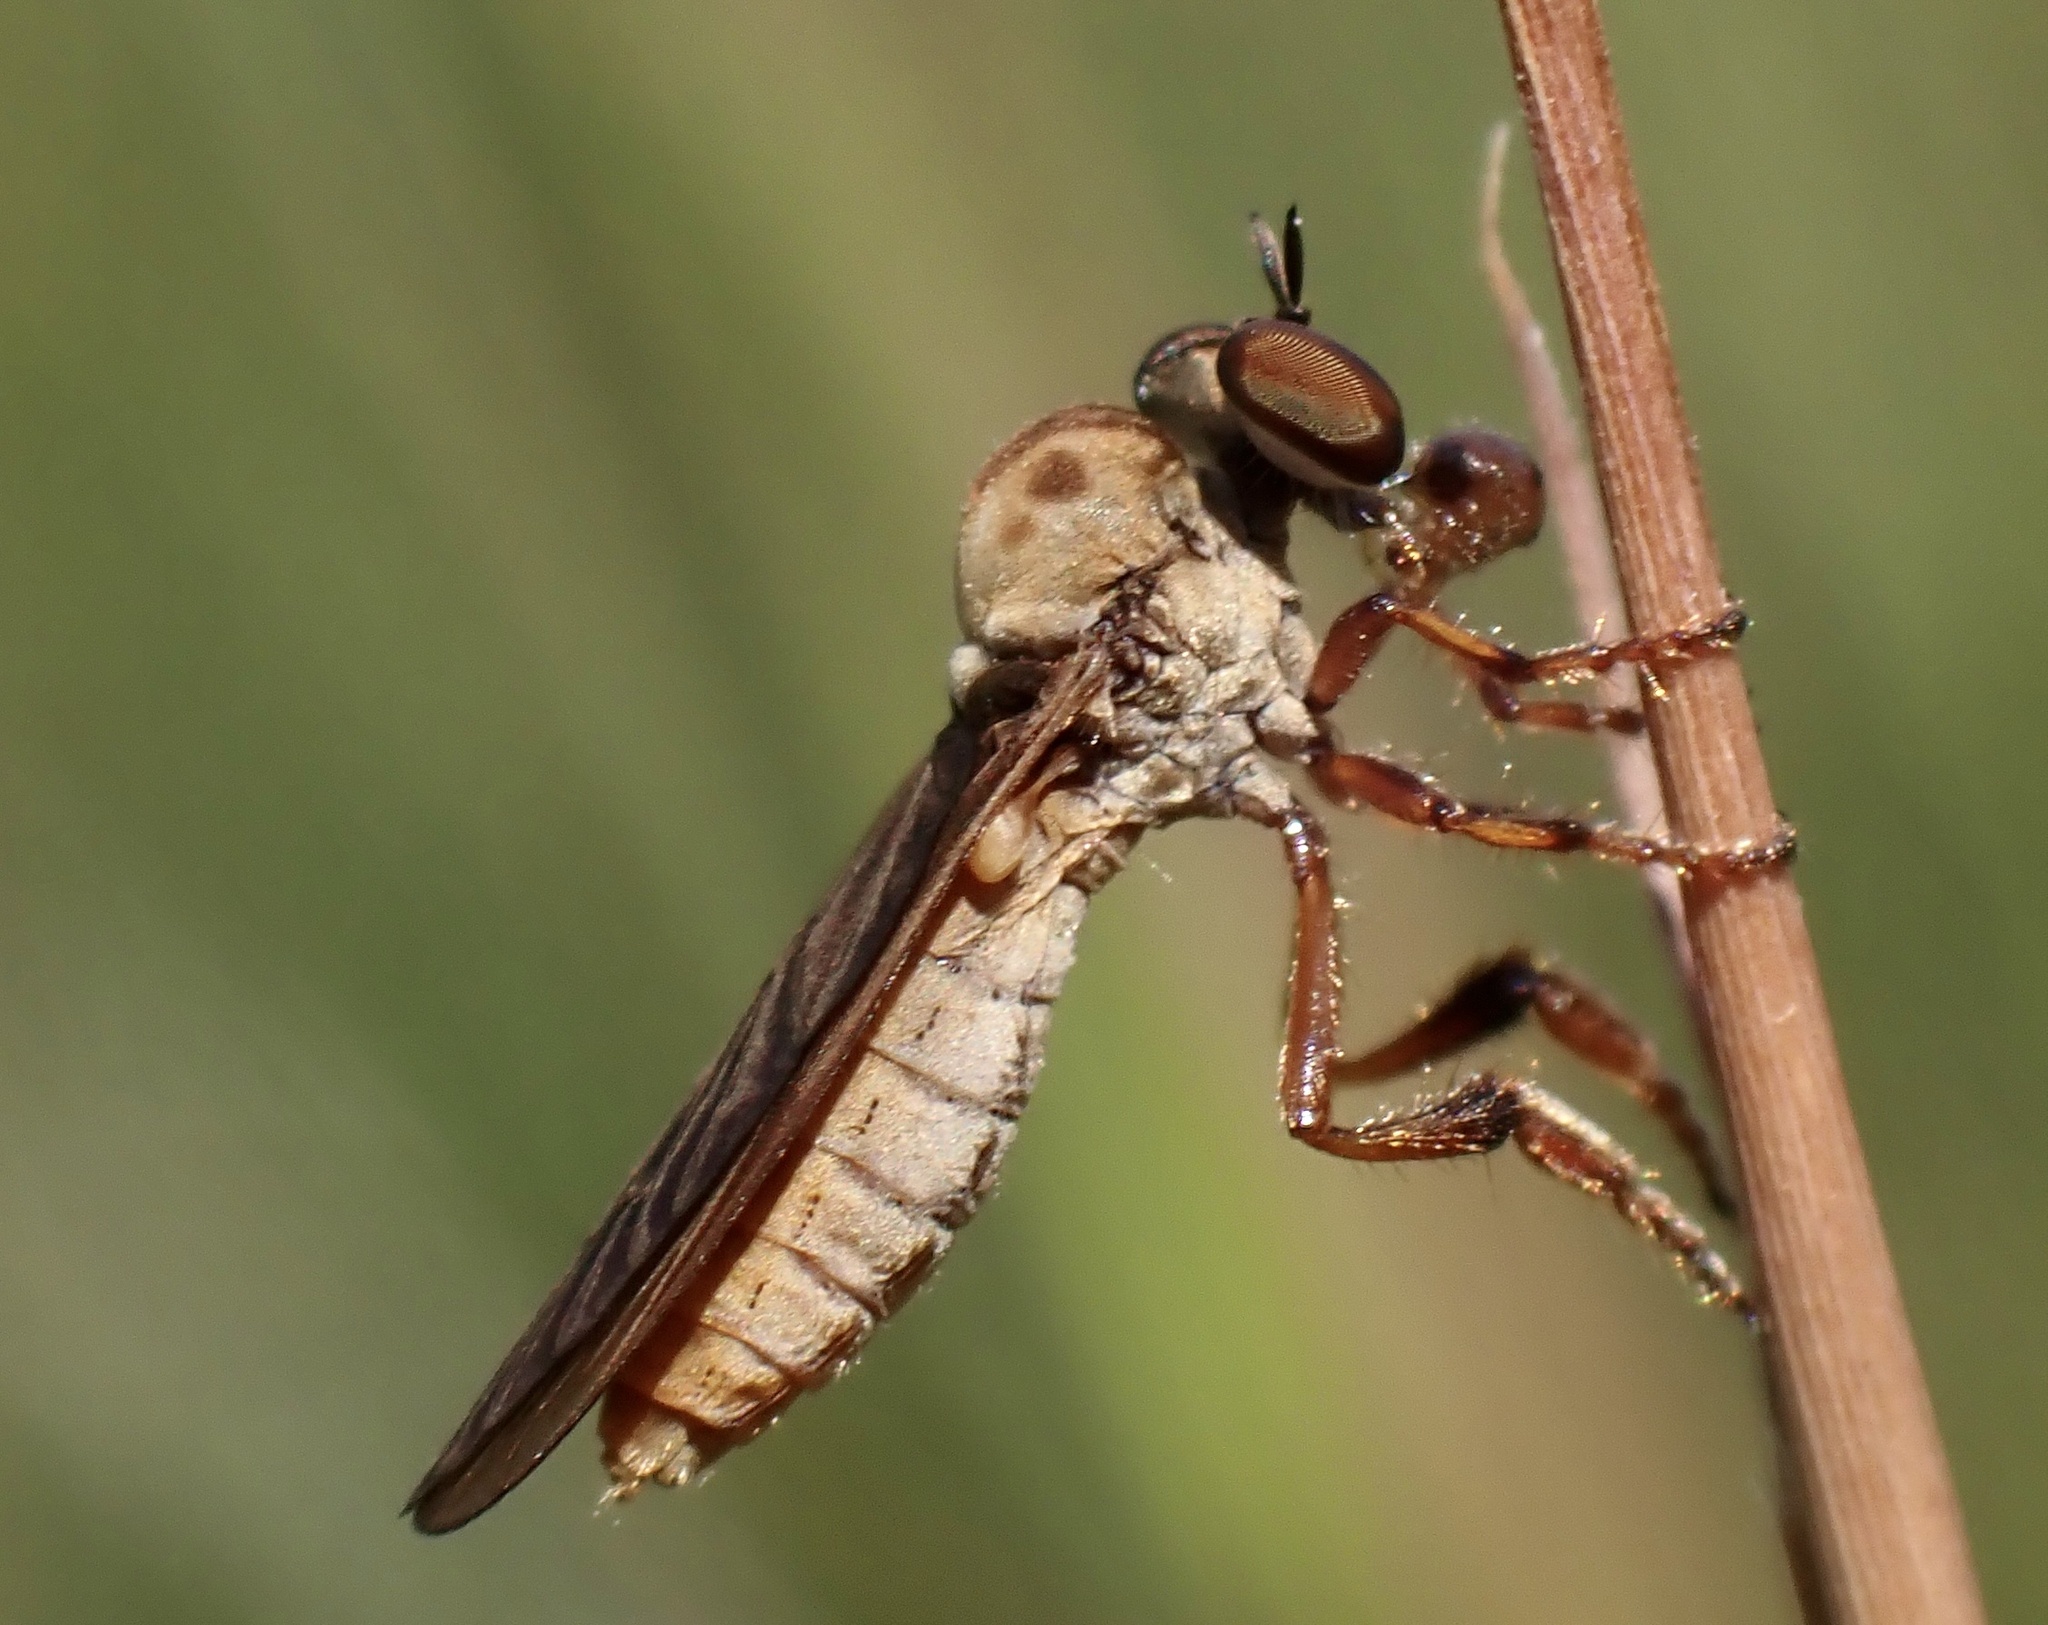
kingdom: Animalia
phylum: Arthropoda
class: Insecta
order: Diptera
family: Asilidae
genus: Holcocephala
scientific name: Holcocephala abdominalis
